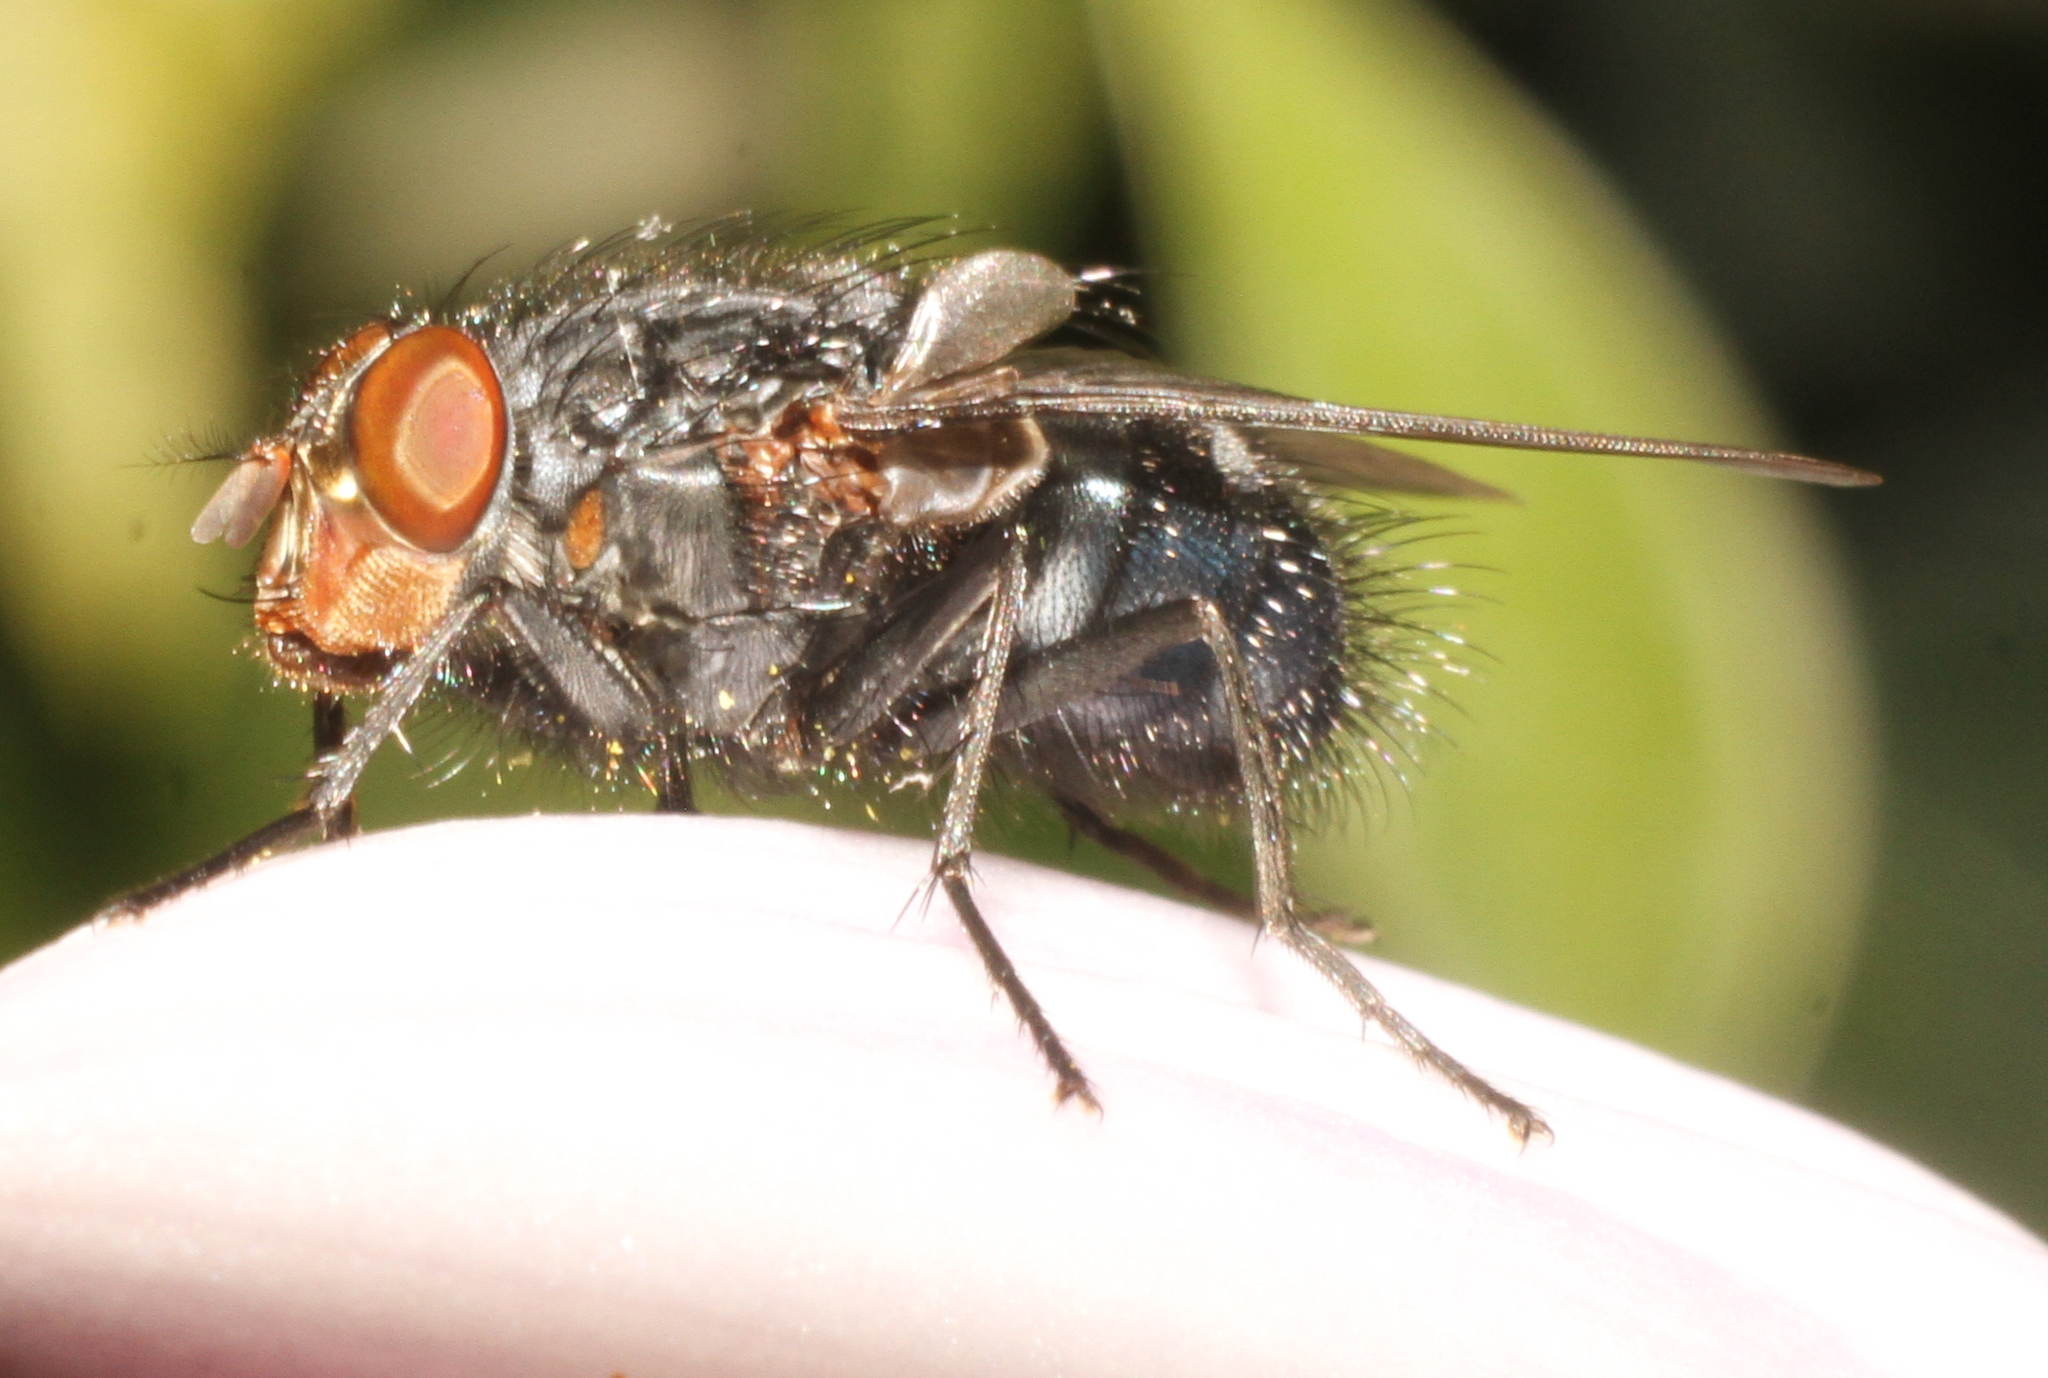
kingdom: Animalia
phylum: Arthropoda
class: Insecta
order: Diptera
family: Calliphoridae
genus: Calliphora
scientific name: Calliphora vicina
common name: Common blow flie
